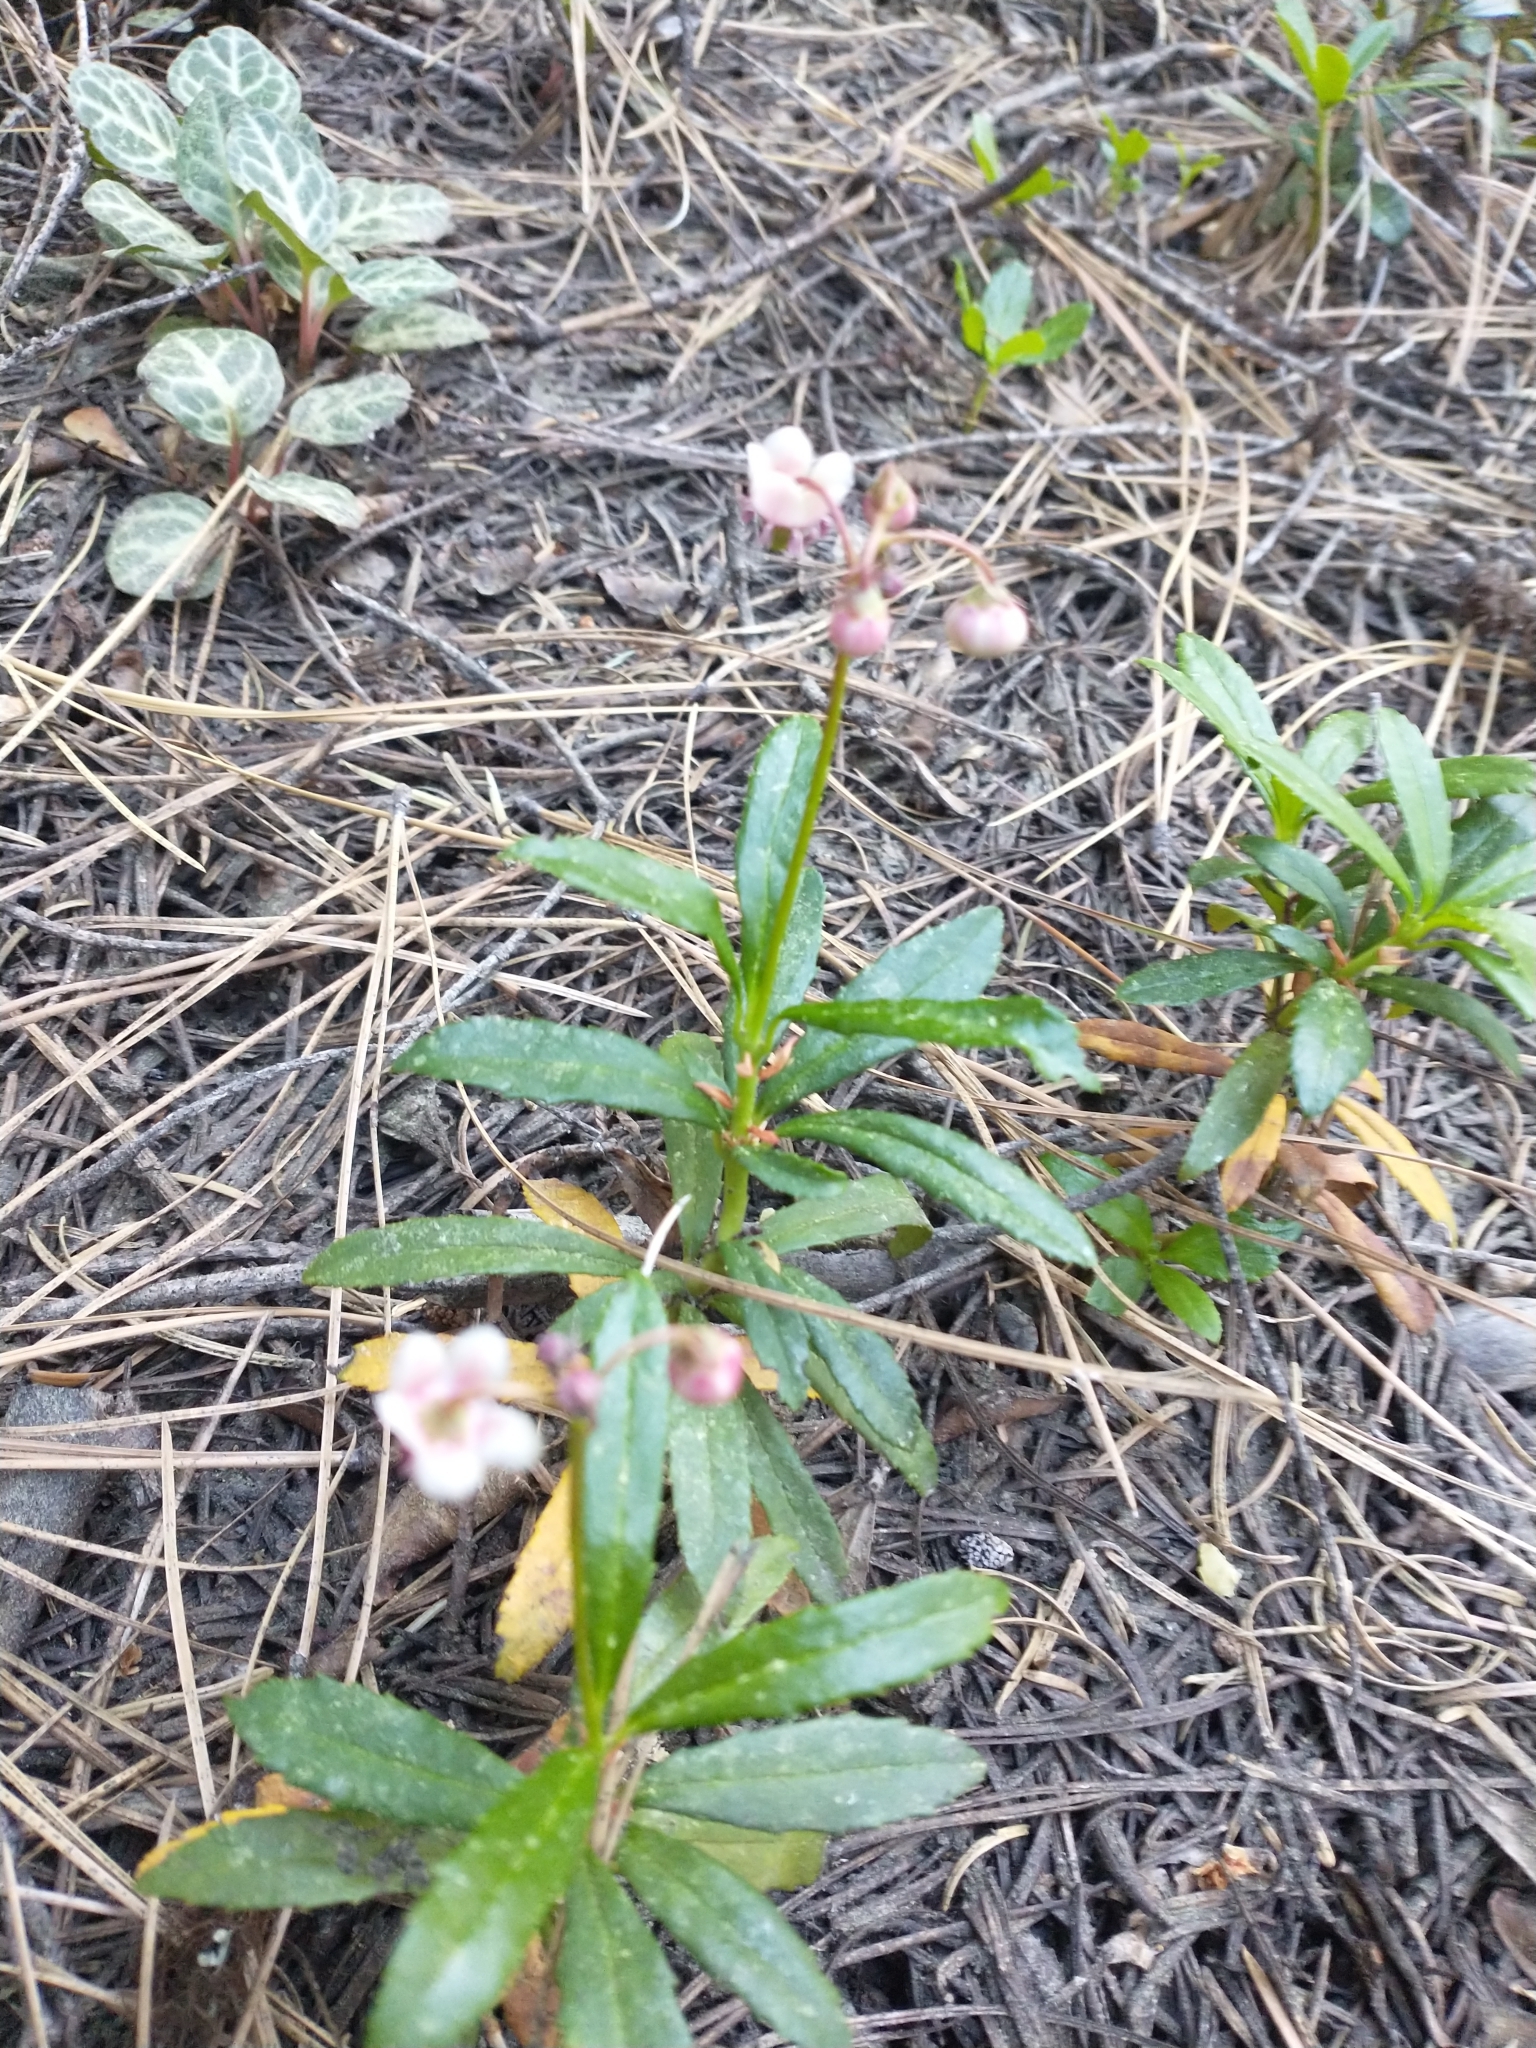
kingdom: Plantae
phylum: Tracheophyta
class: Magnoliopsida
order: Ericales
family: Ericaceae
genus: Chimaphila
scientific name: Chimaphila umbellata
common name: Pipsissewa
